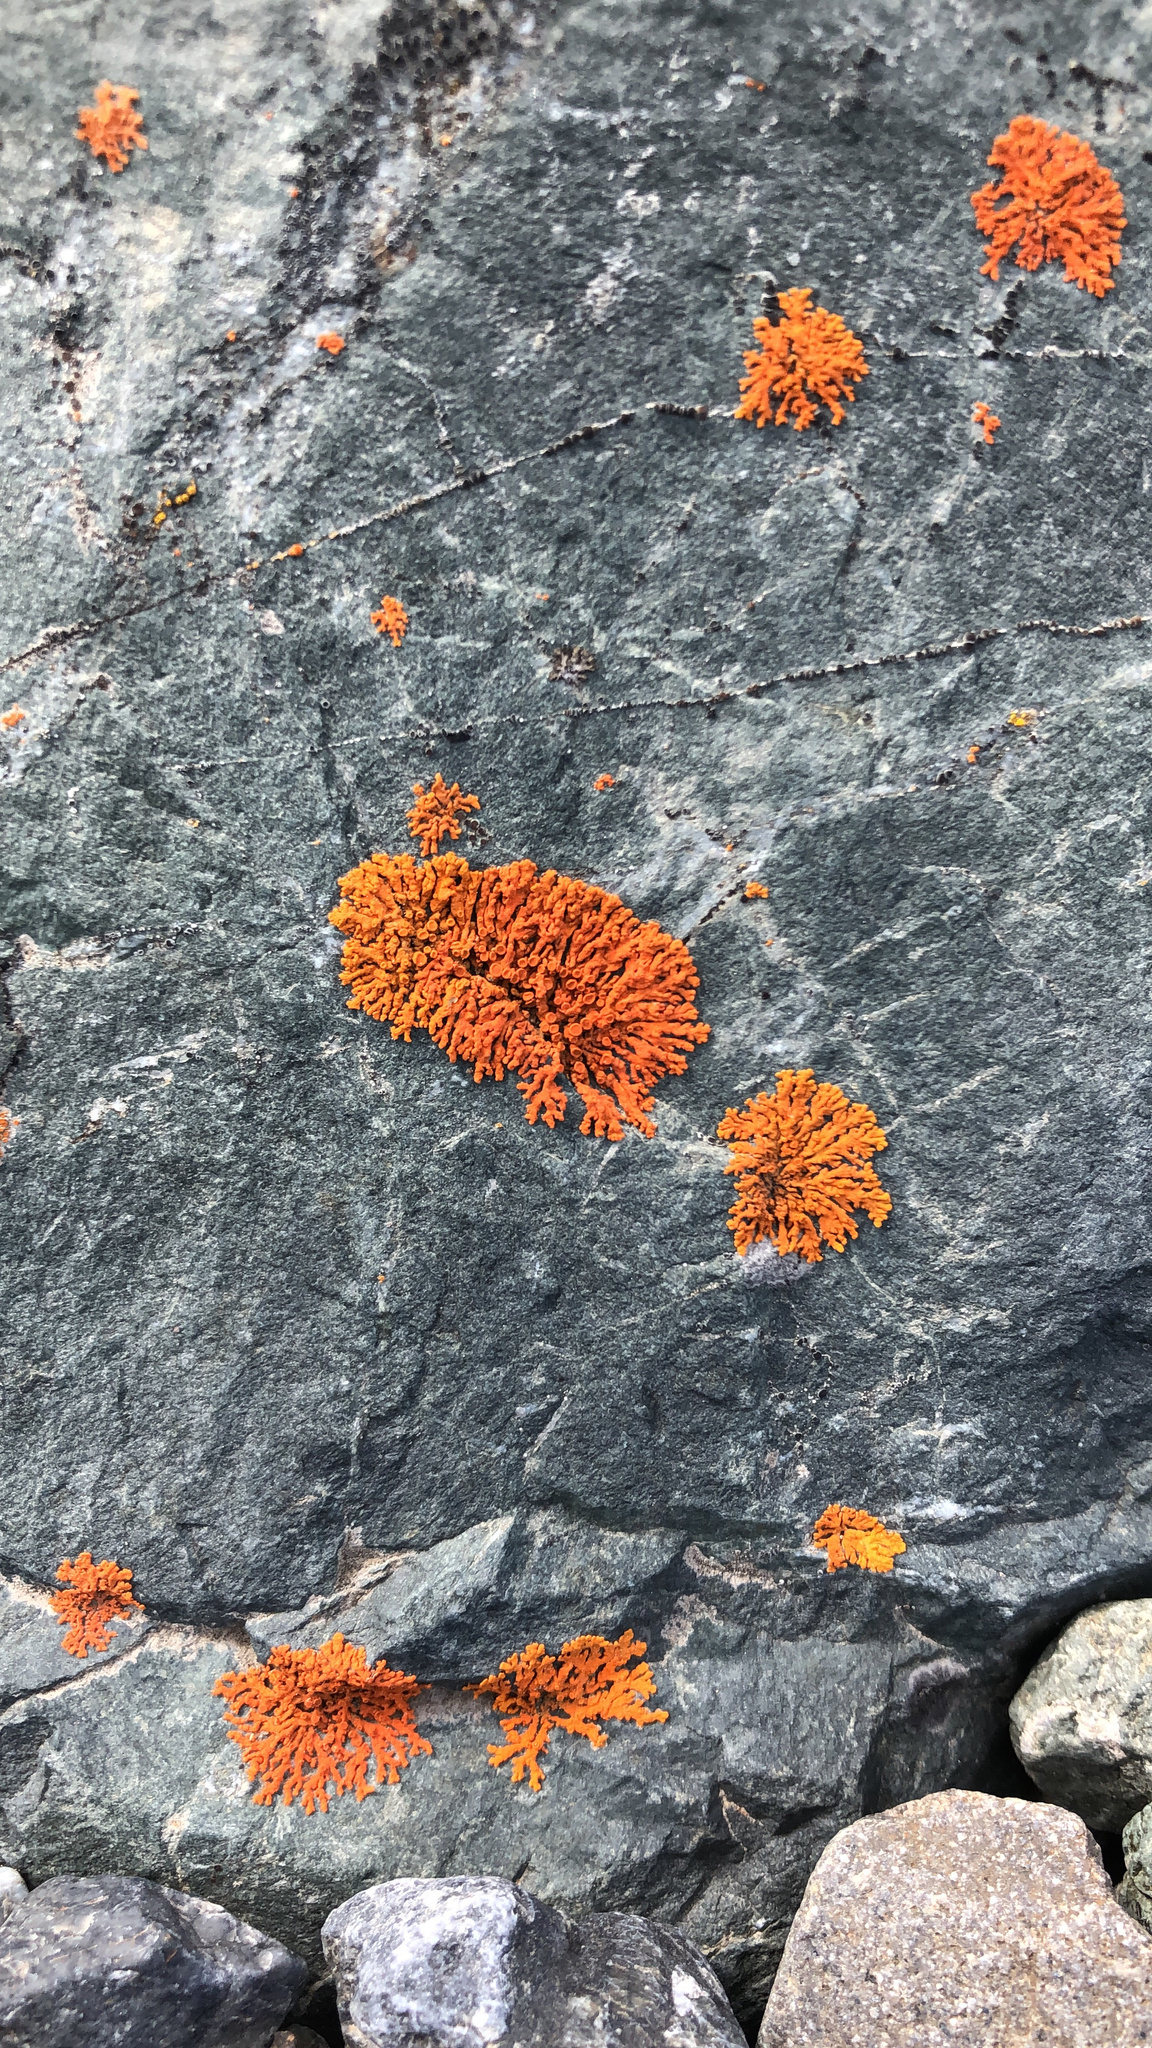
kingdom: Fungi
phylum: Ascomycota
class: Lecanoromycetes
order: Teloschistales
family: Teloschistaceae
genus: Xanthoria
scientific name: Xanthoria elegans
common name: Elegant sunburst lichen
